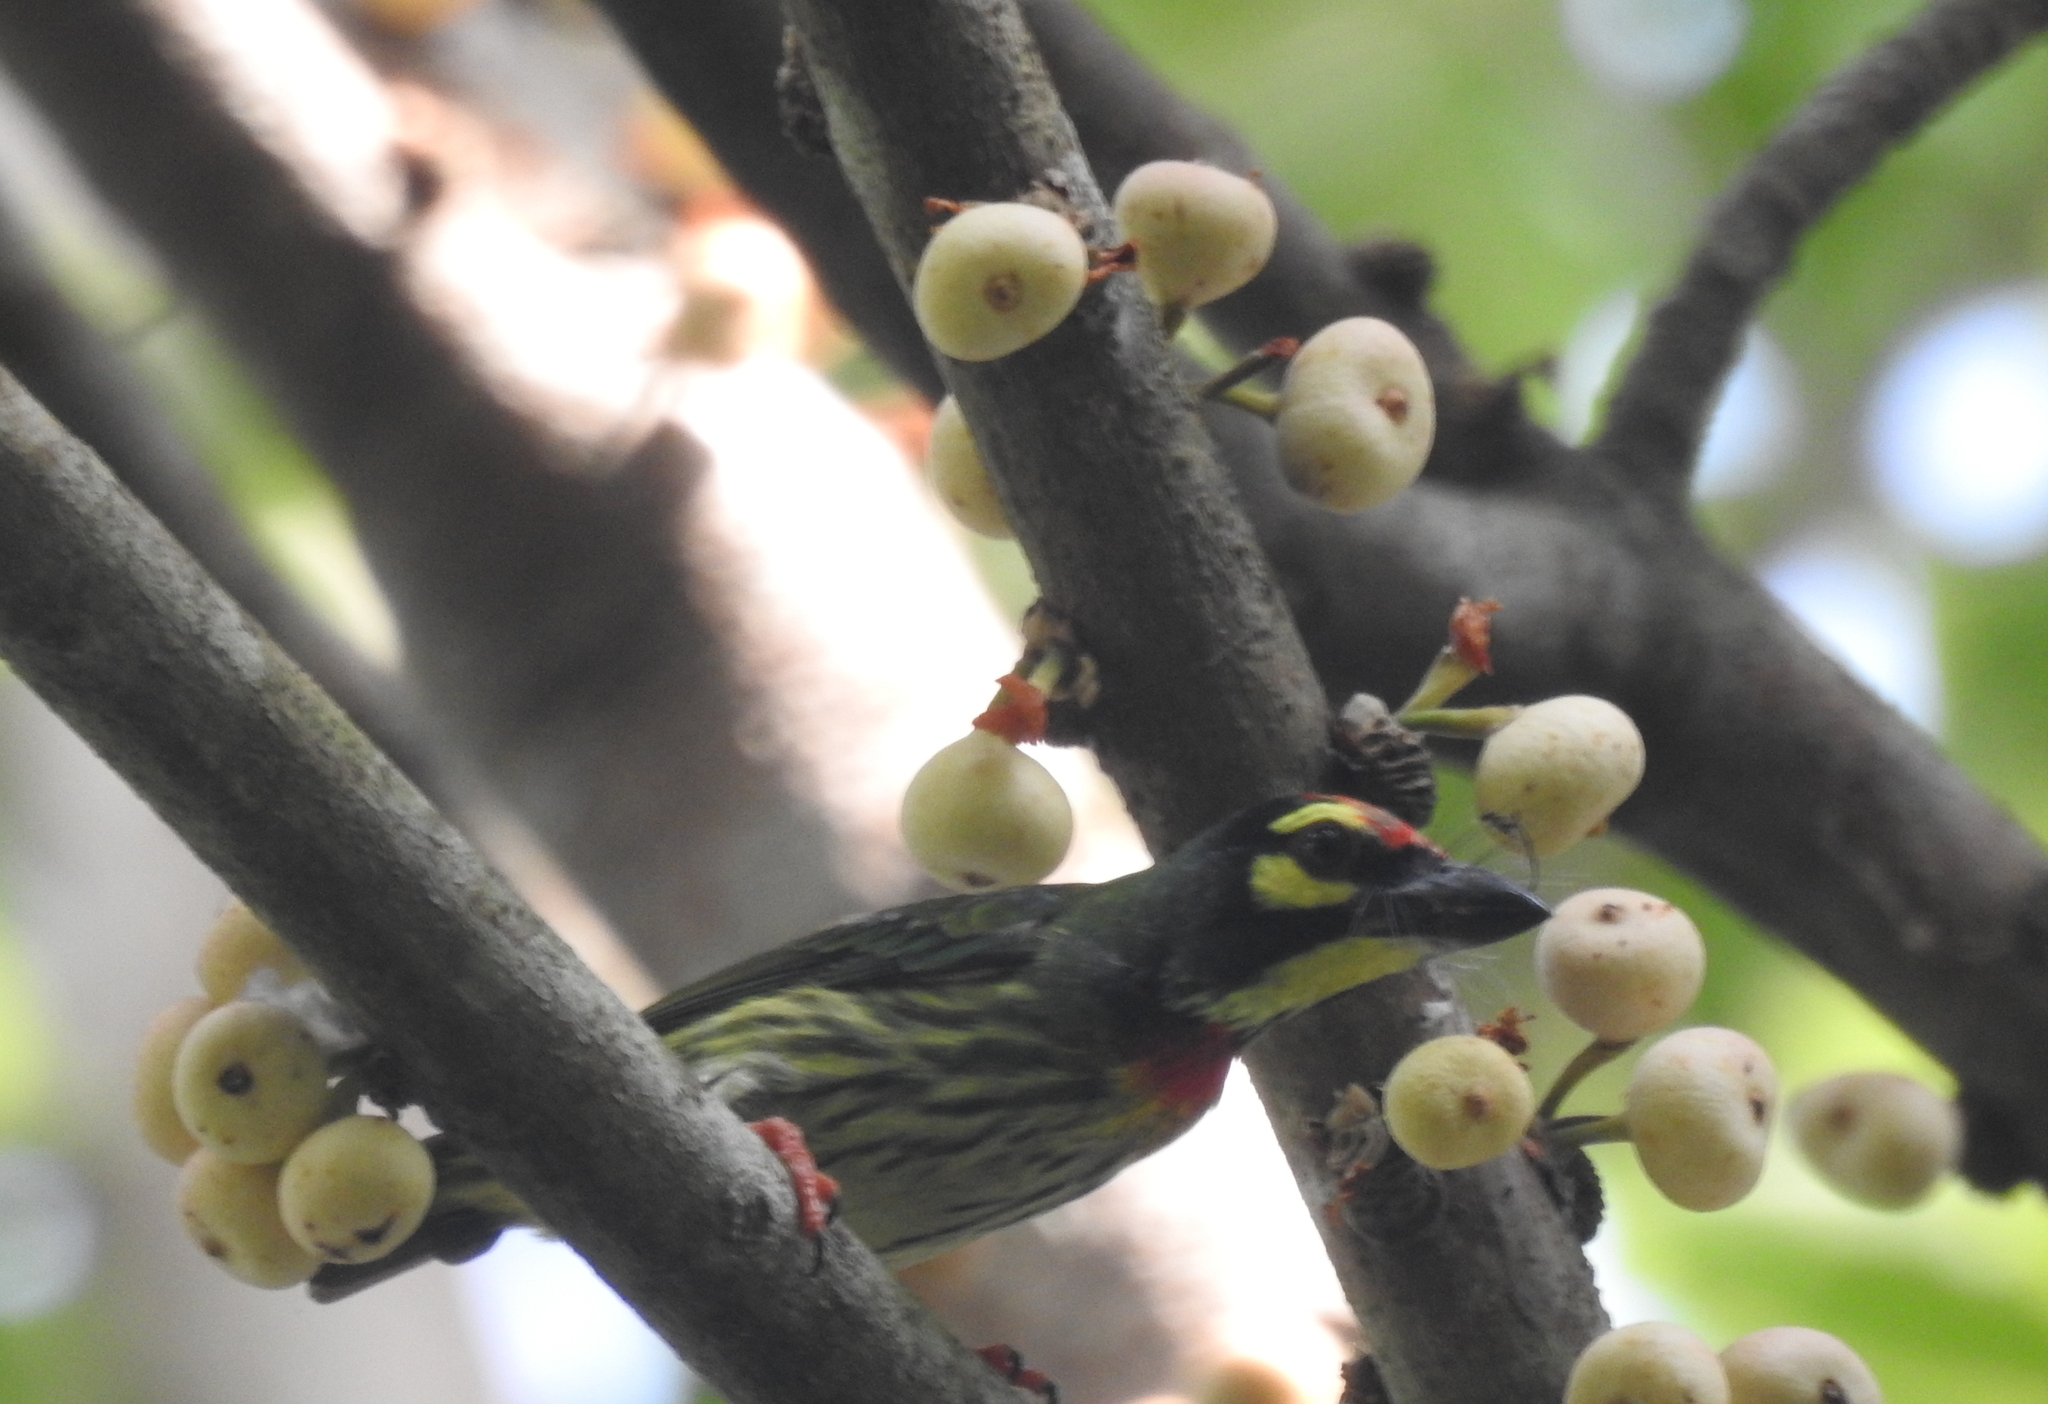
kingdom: Animalia
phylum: Chordata
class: Aves
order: Piciformes
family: Megalaimidae
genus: Psilopogon
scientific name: Psilopogon haemacephalus
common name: Coppersmith barbet
